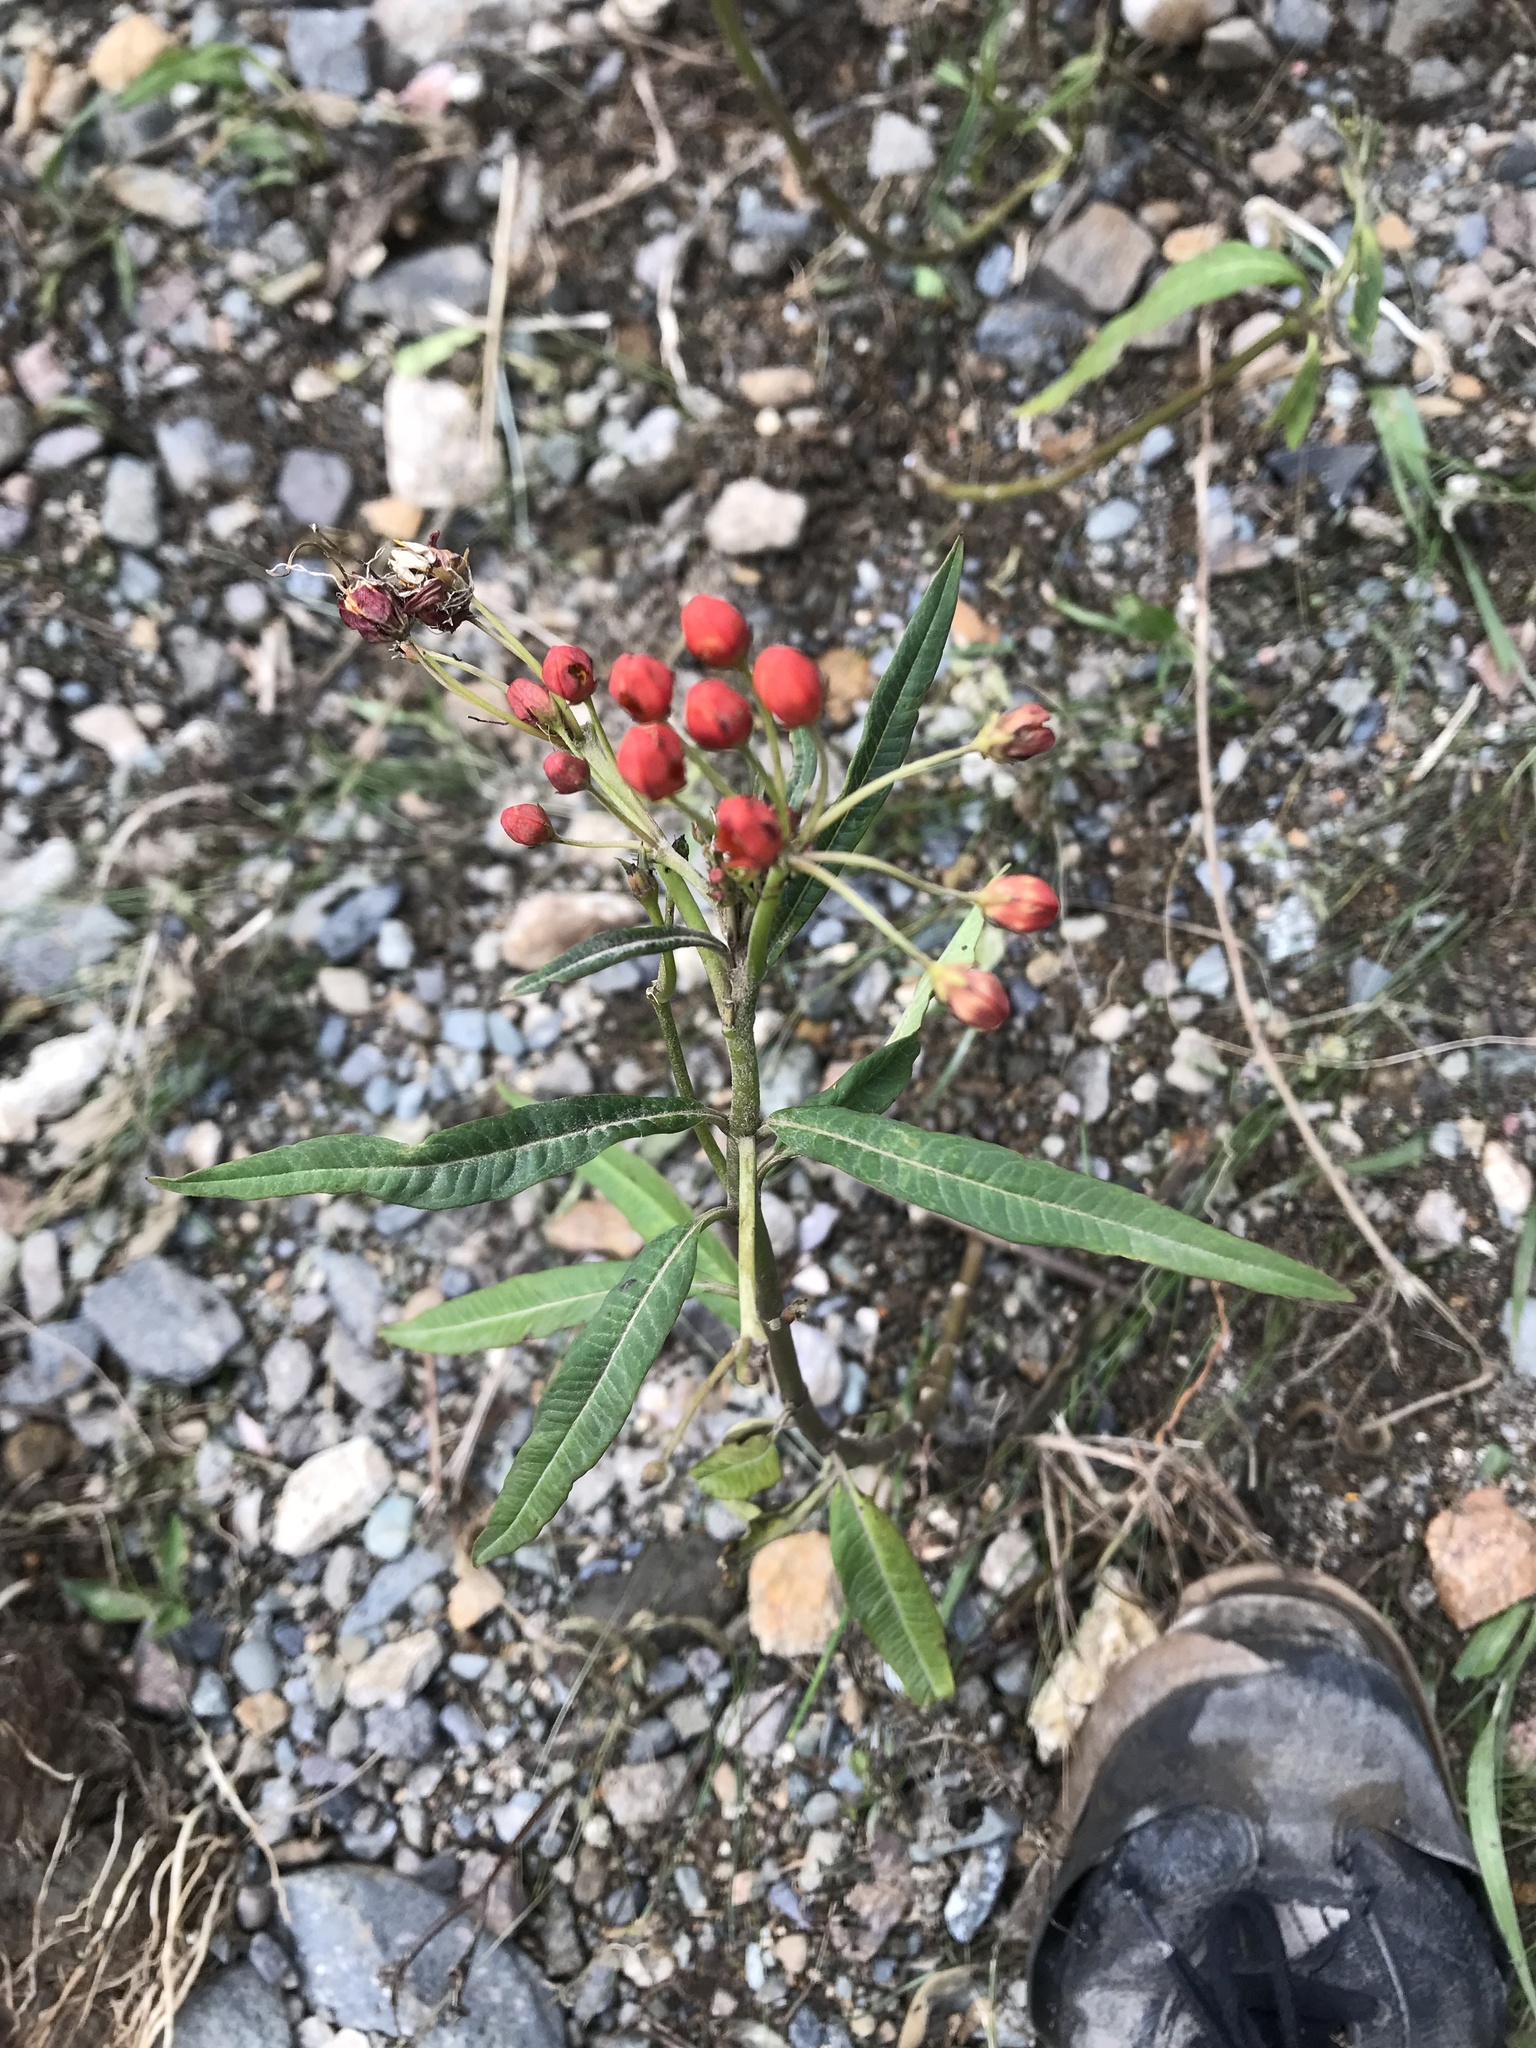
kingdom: Plantae
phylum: Tracheophyta
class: Magnoliopsida
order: Gentianales
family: Apocynaceae
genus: Asclepias
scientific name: Asclepias curassavica
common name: Bloodflower
